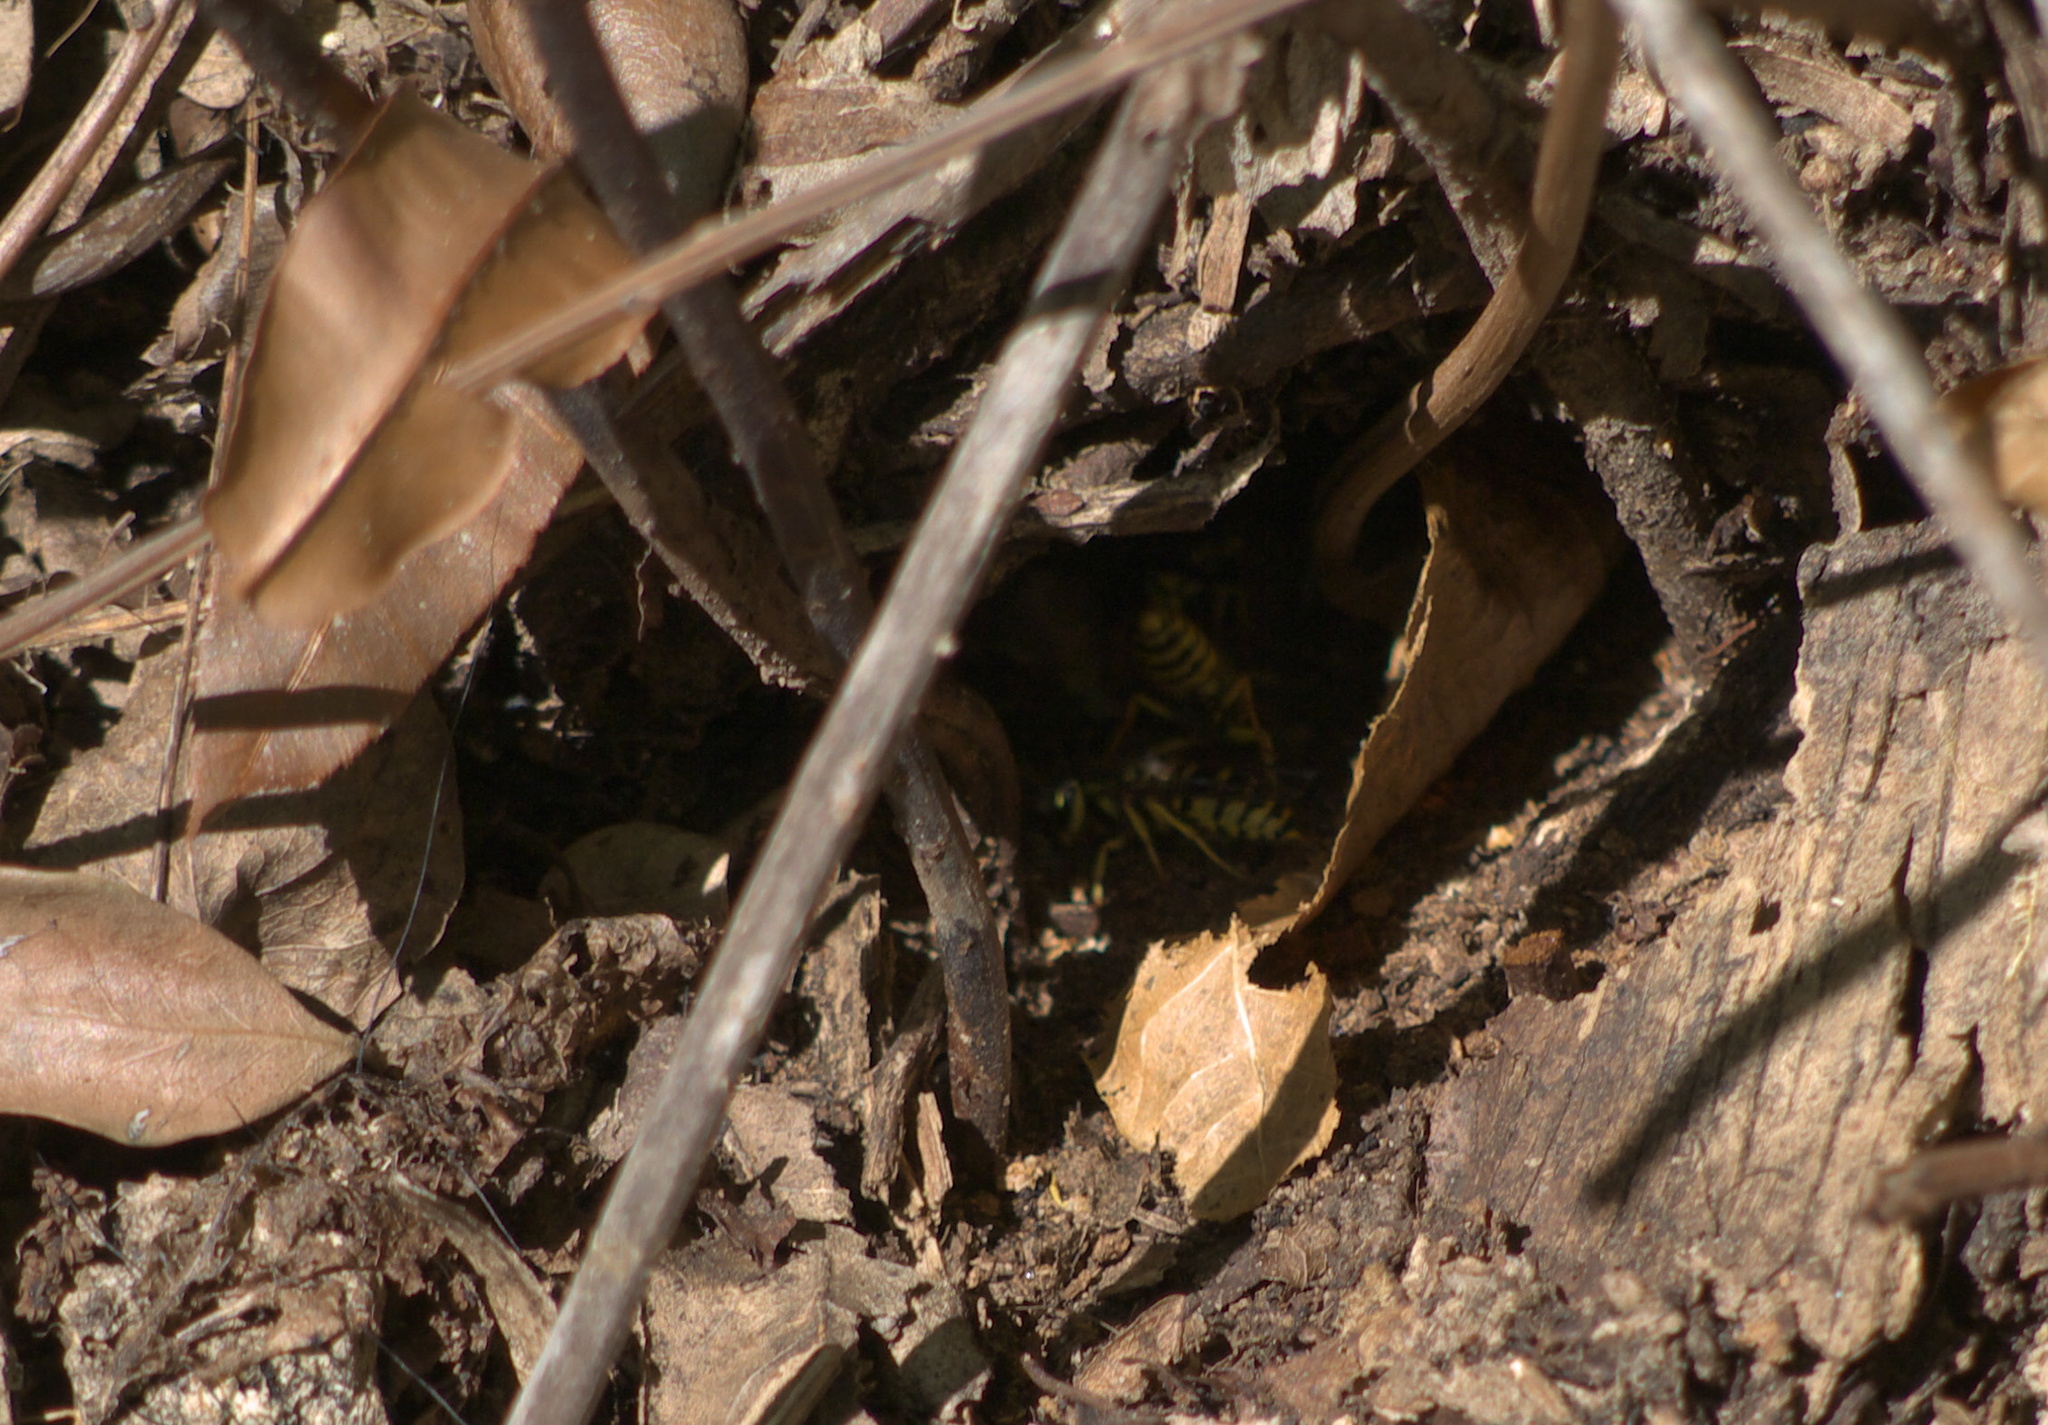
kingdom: Animalia
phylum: Arthropoda
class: Insecta
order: Hymenoptera
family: Vespidae
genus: Vespula
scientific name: Vespula squamosa
